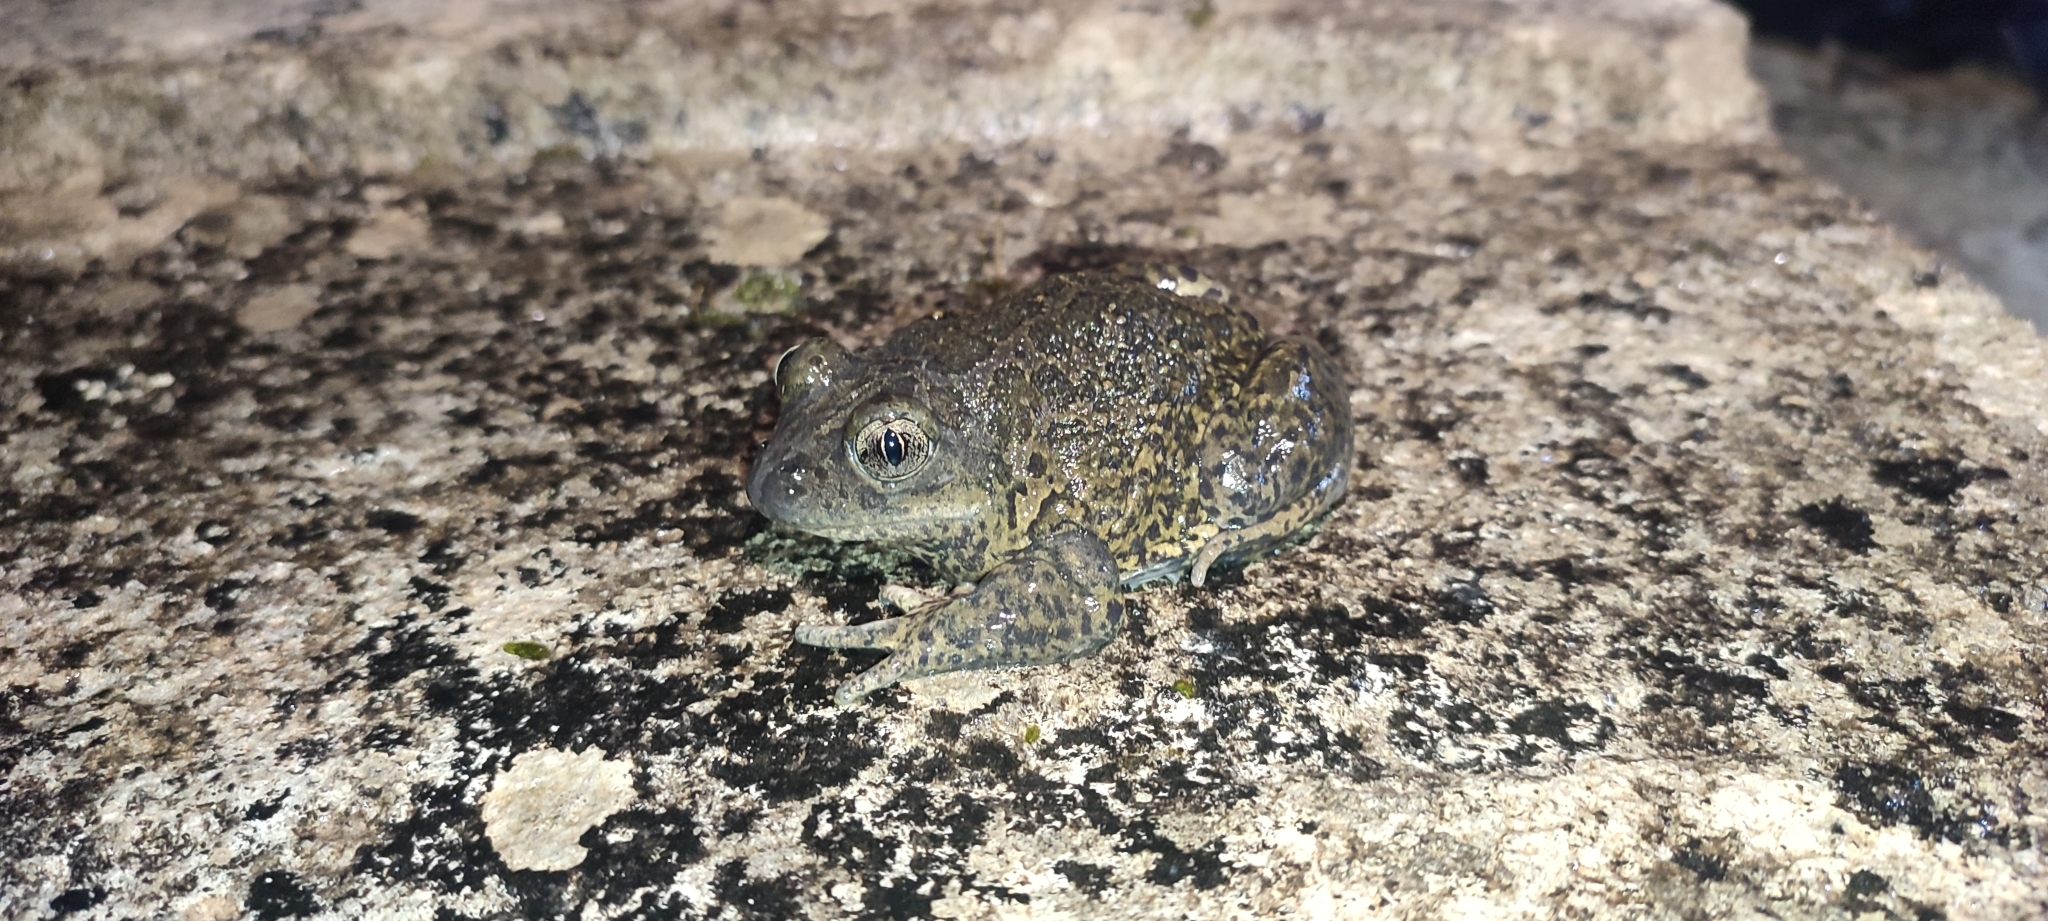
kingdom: Animalia
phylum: Chordata
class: Amphibia
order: Anura
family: Pelobatidae
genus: Pelobates
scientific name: Pelobates cultripes
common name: Western spadefoot
